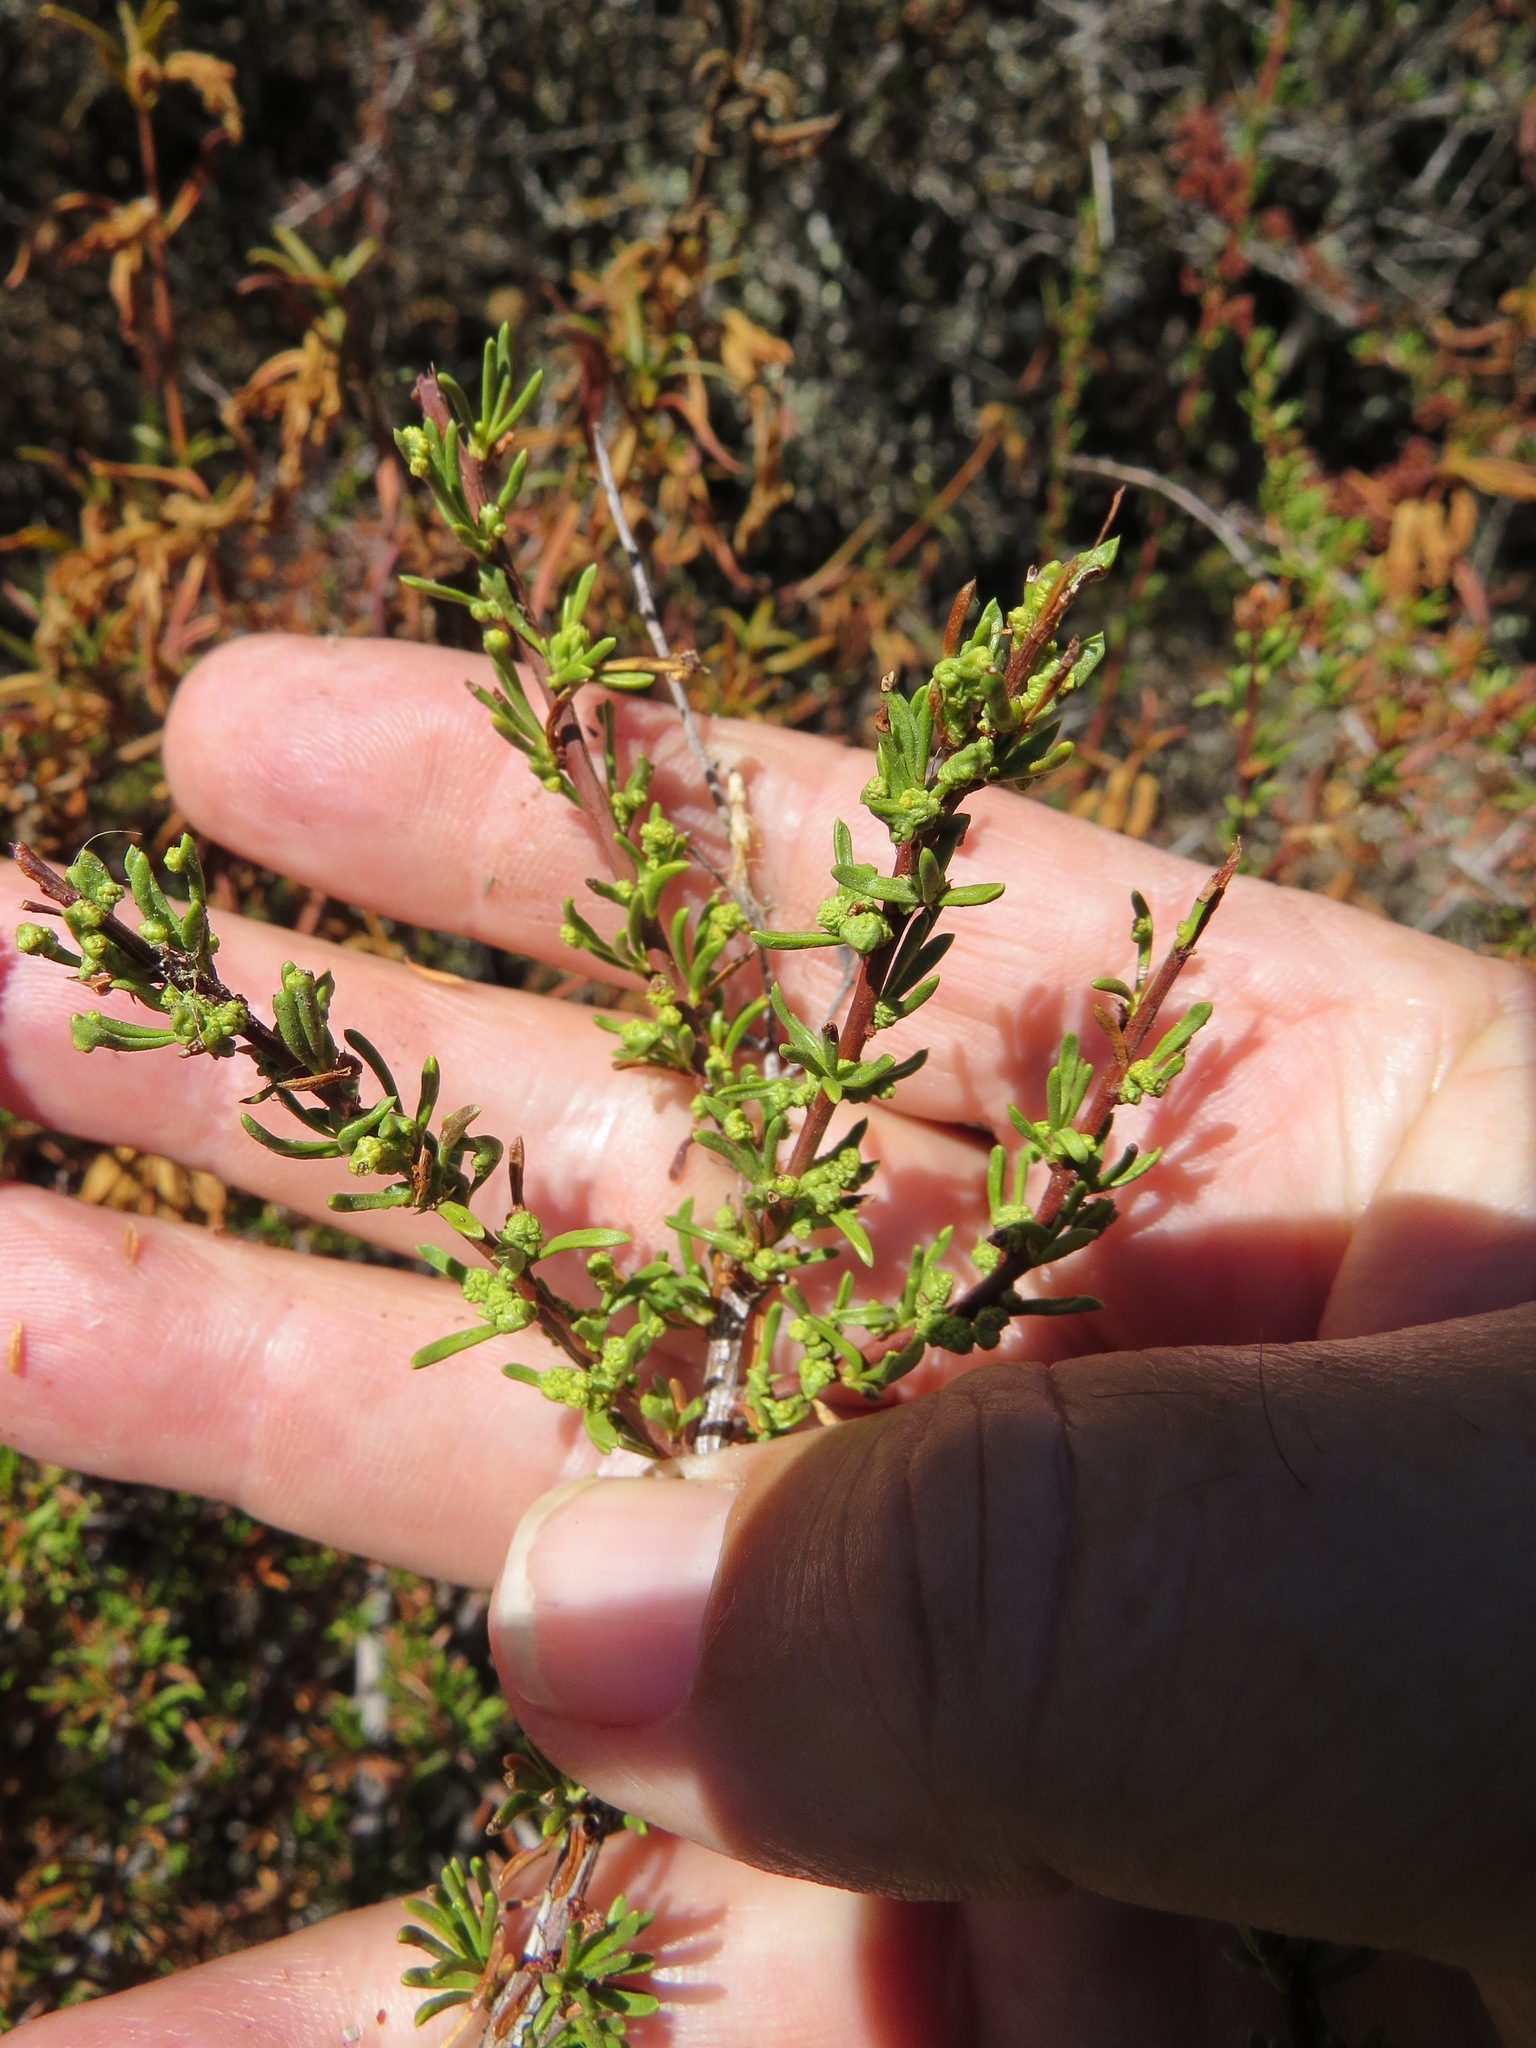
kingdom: Animalia
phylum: Arthropoda
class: Arachnida
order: Trombidiformes
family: Eriophyidae
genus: Eriophyes
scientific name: Eriophyes
